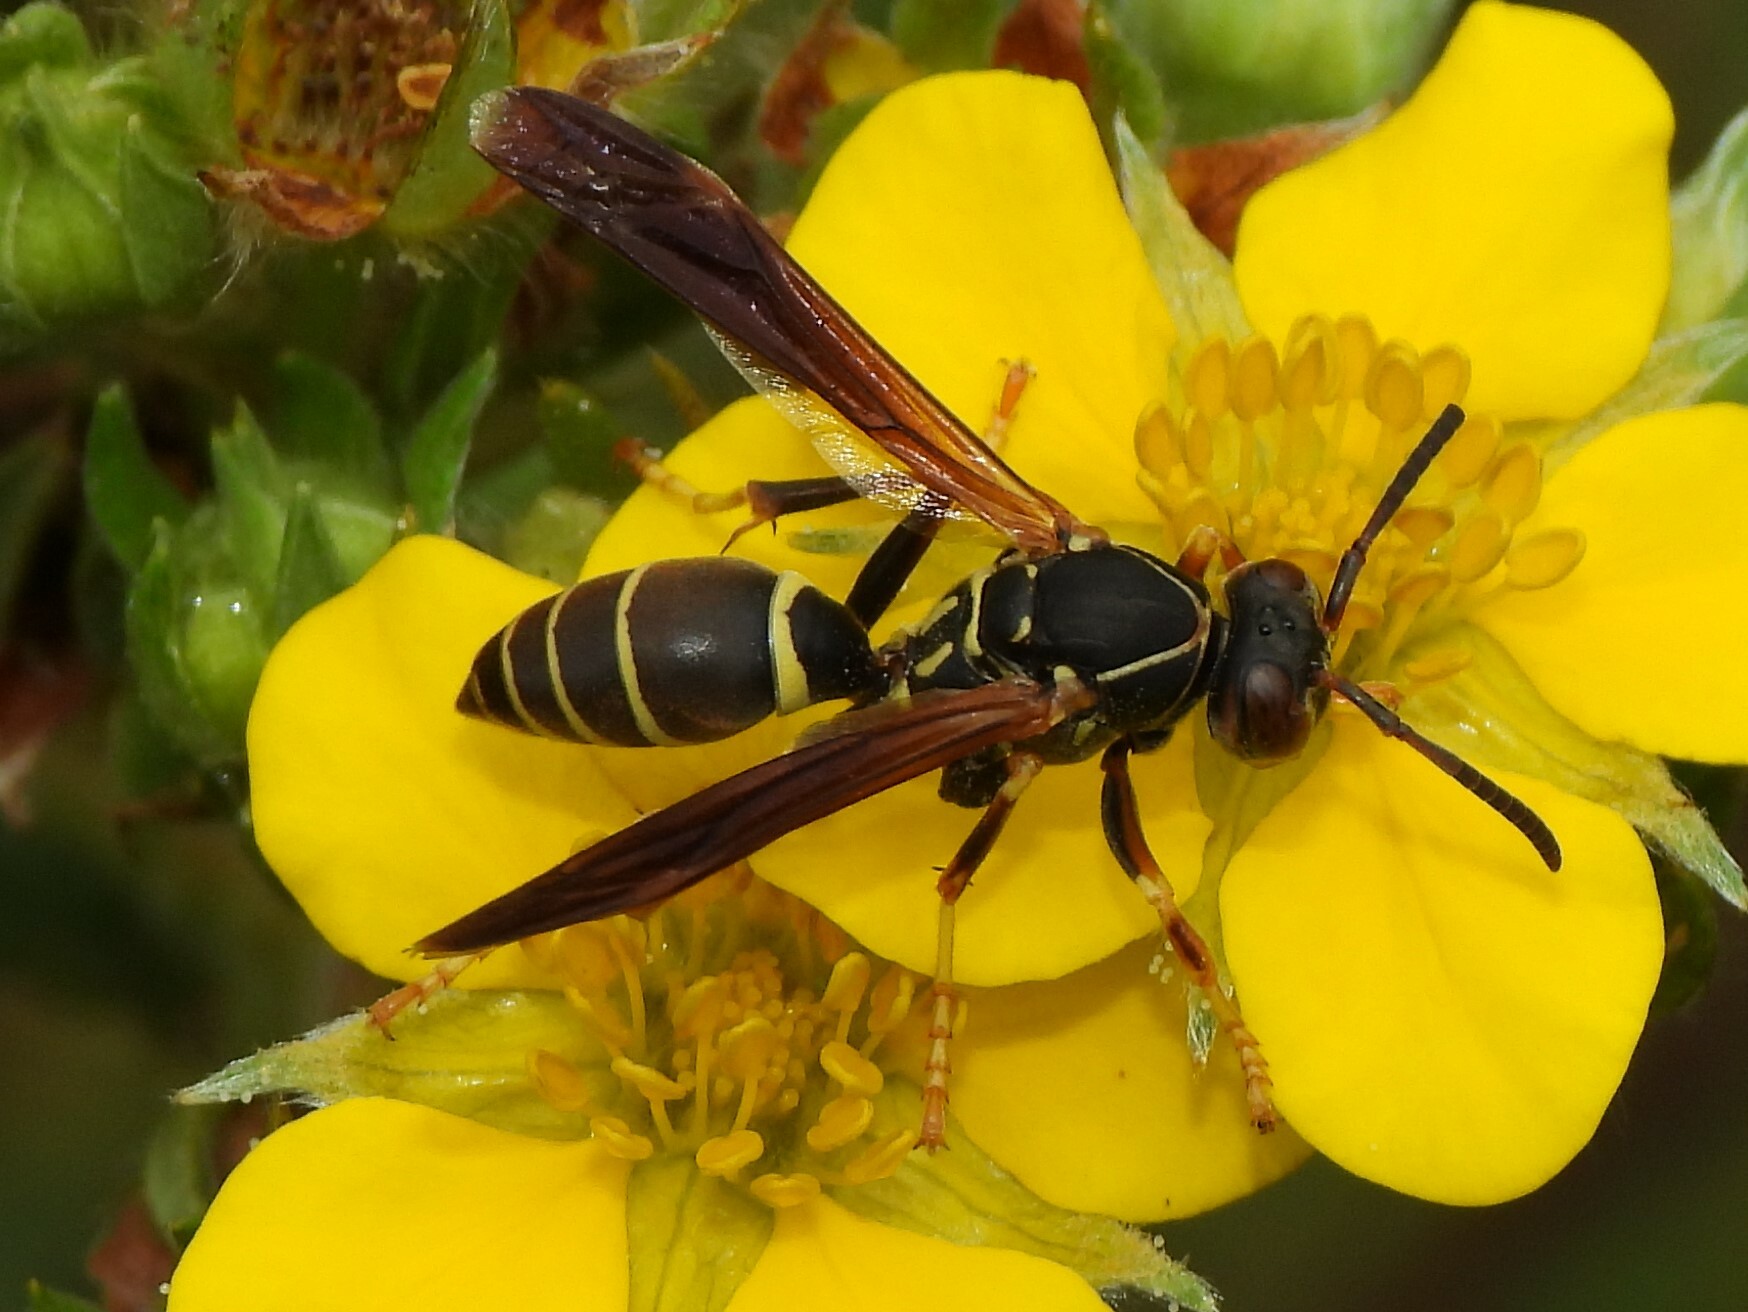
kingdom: Animalia
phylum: Arthropoda
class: Insecta
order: Hymenoptera
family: Eumenidae
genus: Polistes
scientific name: Polistes fuscatus
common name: Dark paper wasp
